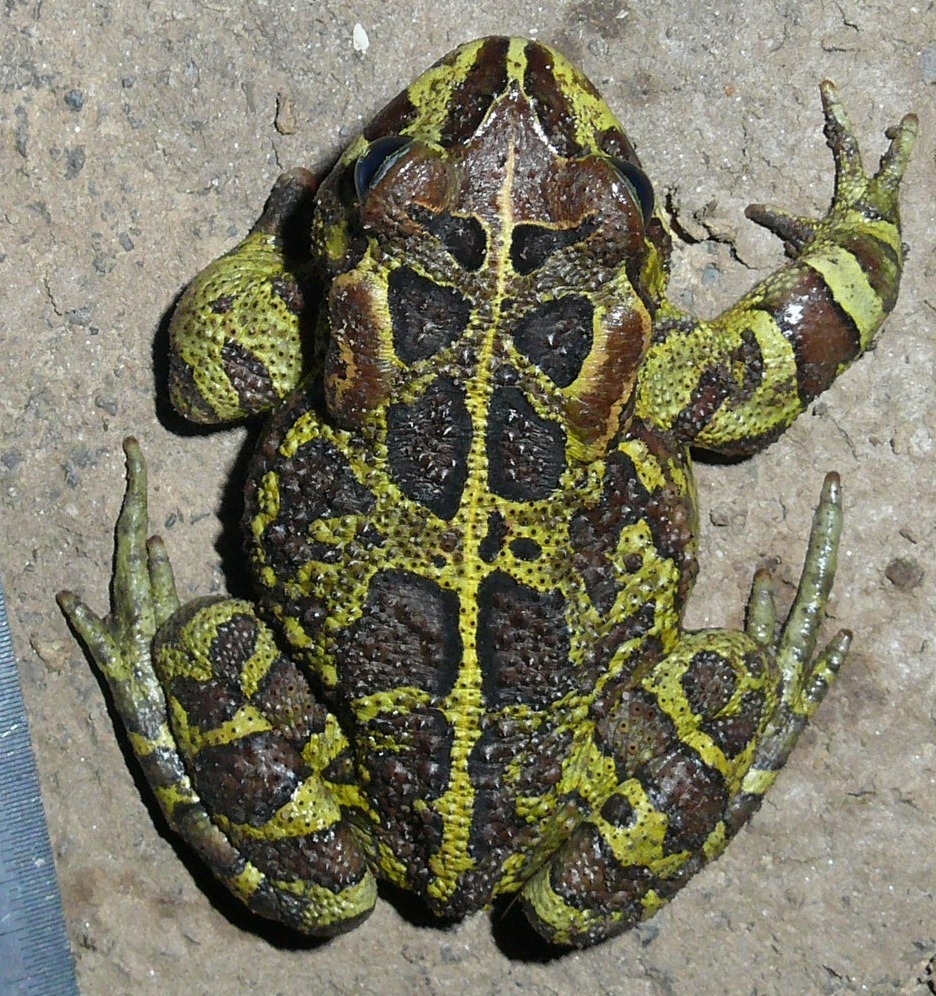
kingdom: Animalia
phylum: Chordata
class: Amphibia
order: Anura
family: Bufonidae
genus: Sclerophrys
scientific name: Sclerophrys pantherina
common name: Panther toad
